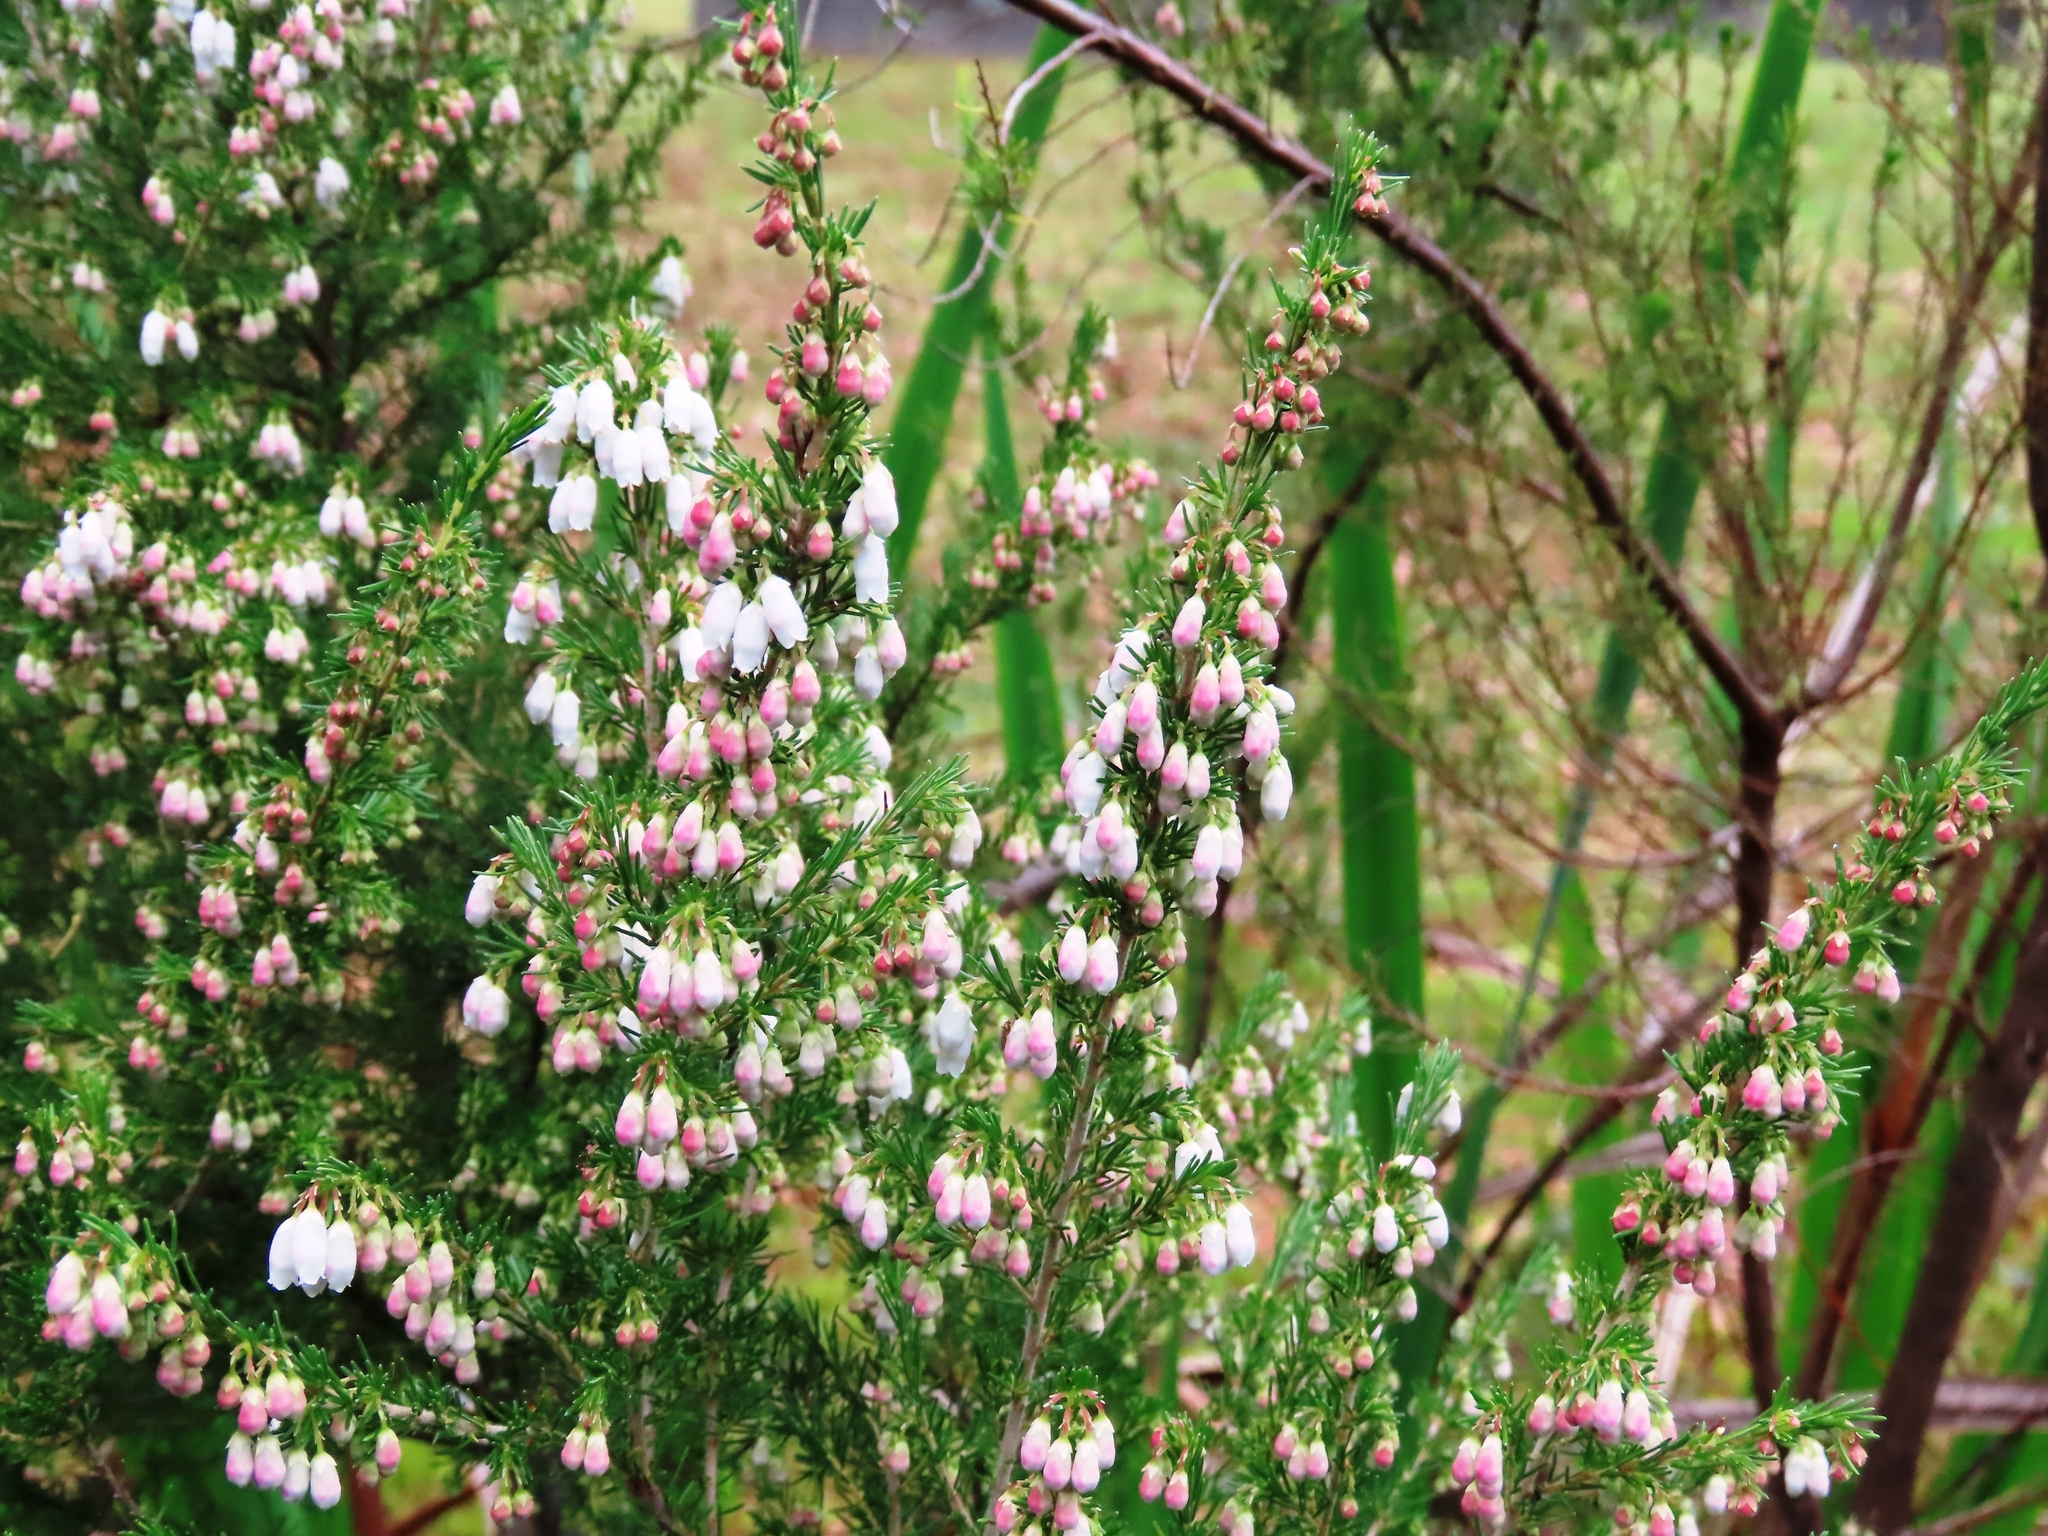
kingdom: Plantae
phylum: Tracheophyta
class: Magnoliopsida
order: Ericales
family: Ericaceae
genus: Erica
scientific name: Erica lusitanica
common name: Spanish heath
